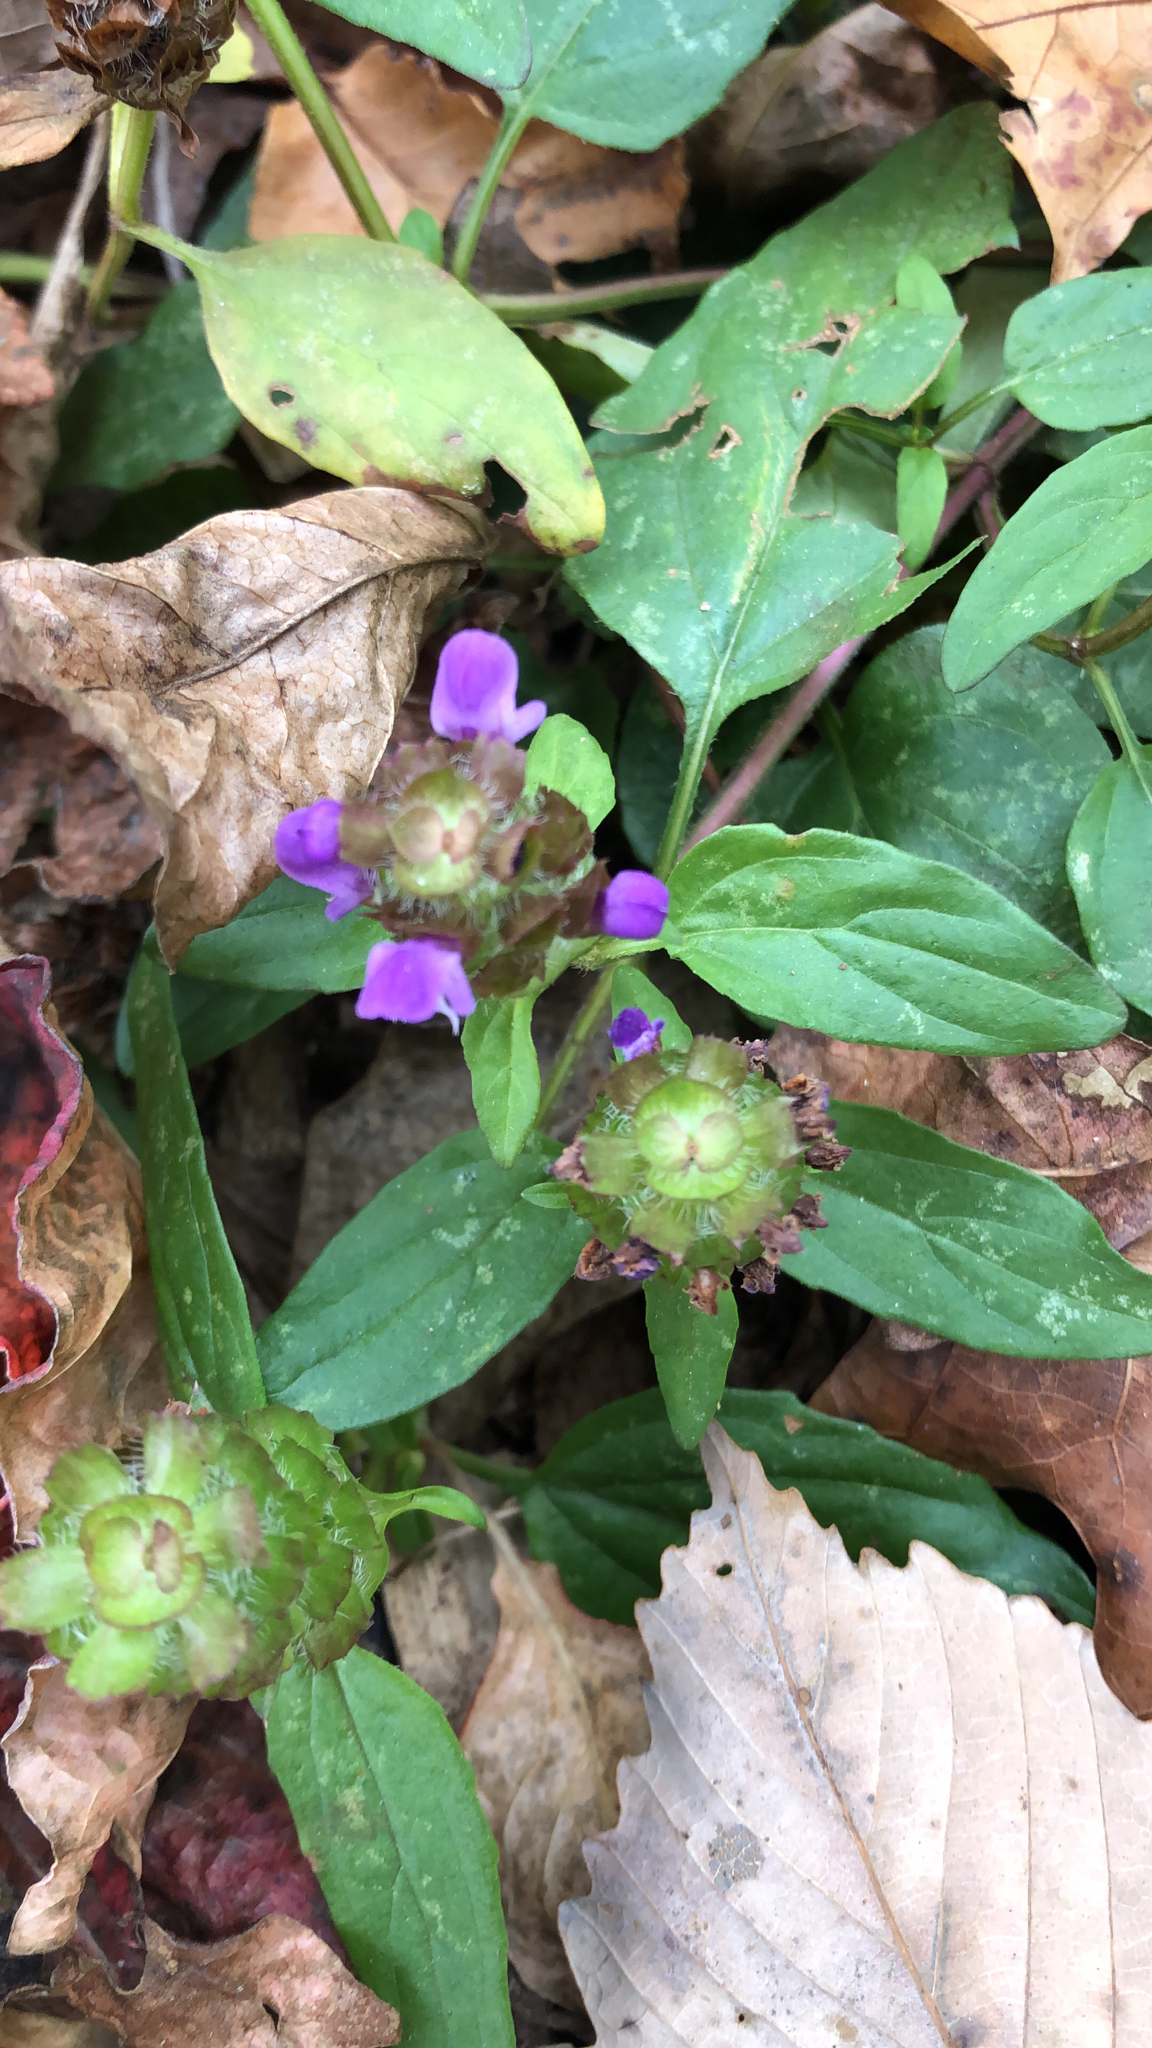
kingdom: Plantae
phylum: Tracheophyta
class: Magnoliopsida
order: Lamiales
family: Lamiaceae
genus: Prunella
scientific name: Prunella vulgaris
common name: Heal-all
